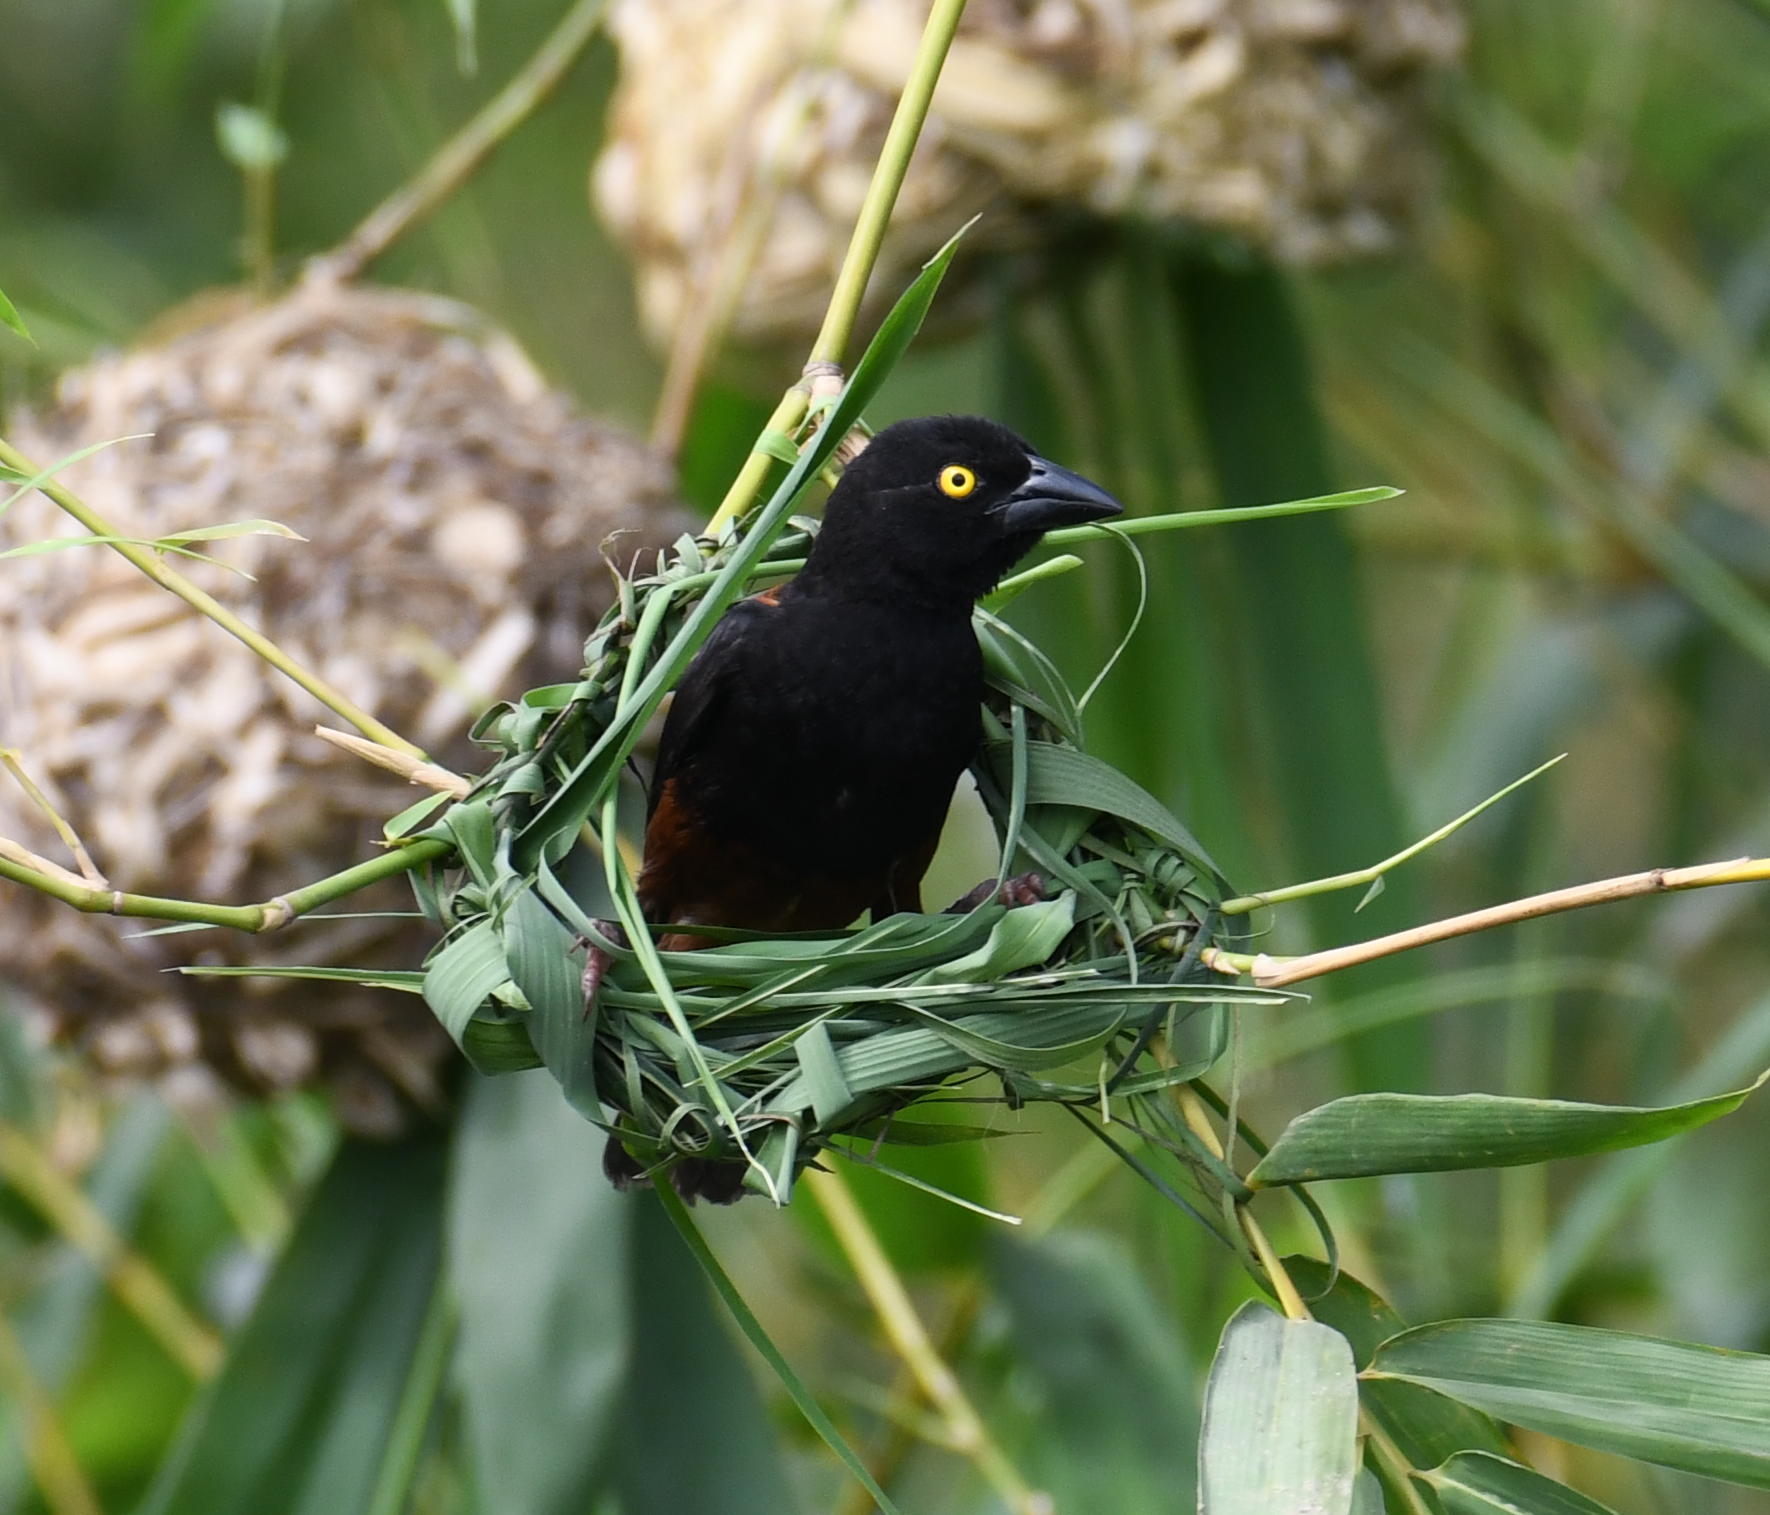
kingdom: Animalia
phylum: Chordata
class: Aves
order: Passeriformes
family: Ploceidae
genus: Ploceus
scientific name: Ploceus castaneofuscus
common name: Chestnut-and-black weaver
